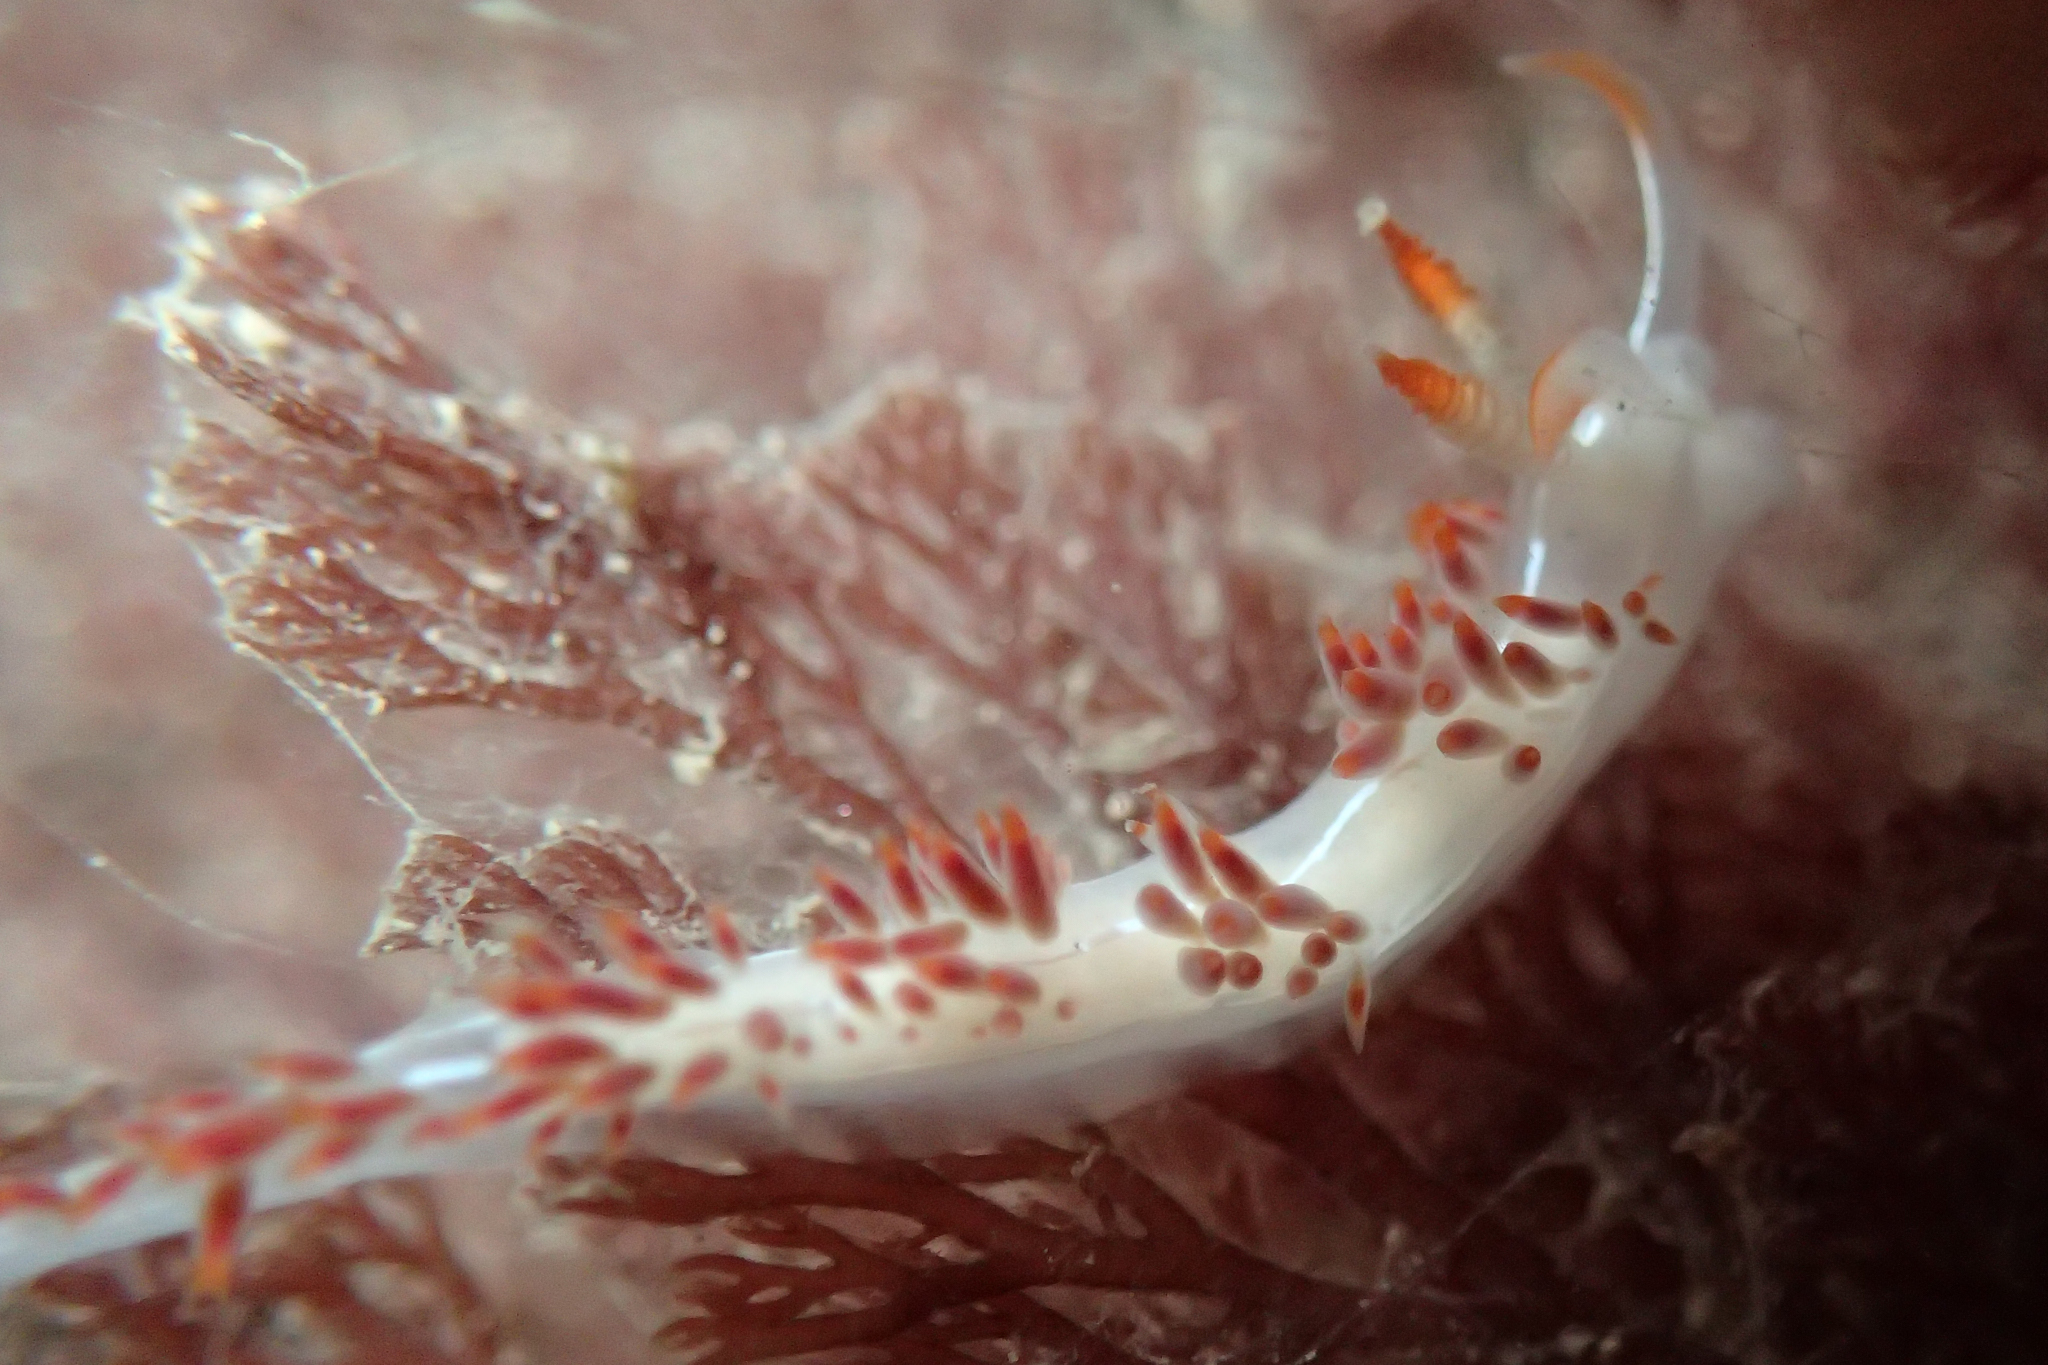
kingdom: Animalia
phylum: Mollusca
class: Gastropoda
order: Nudibranchia
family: Coryphellidae
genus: Coryphella
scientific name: Coryphella trilineata
